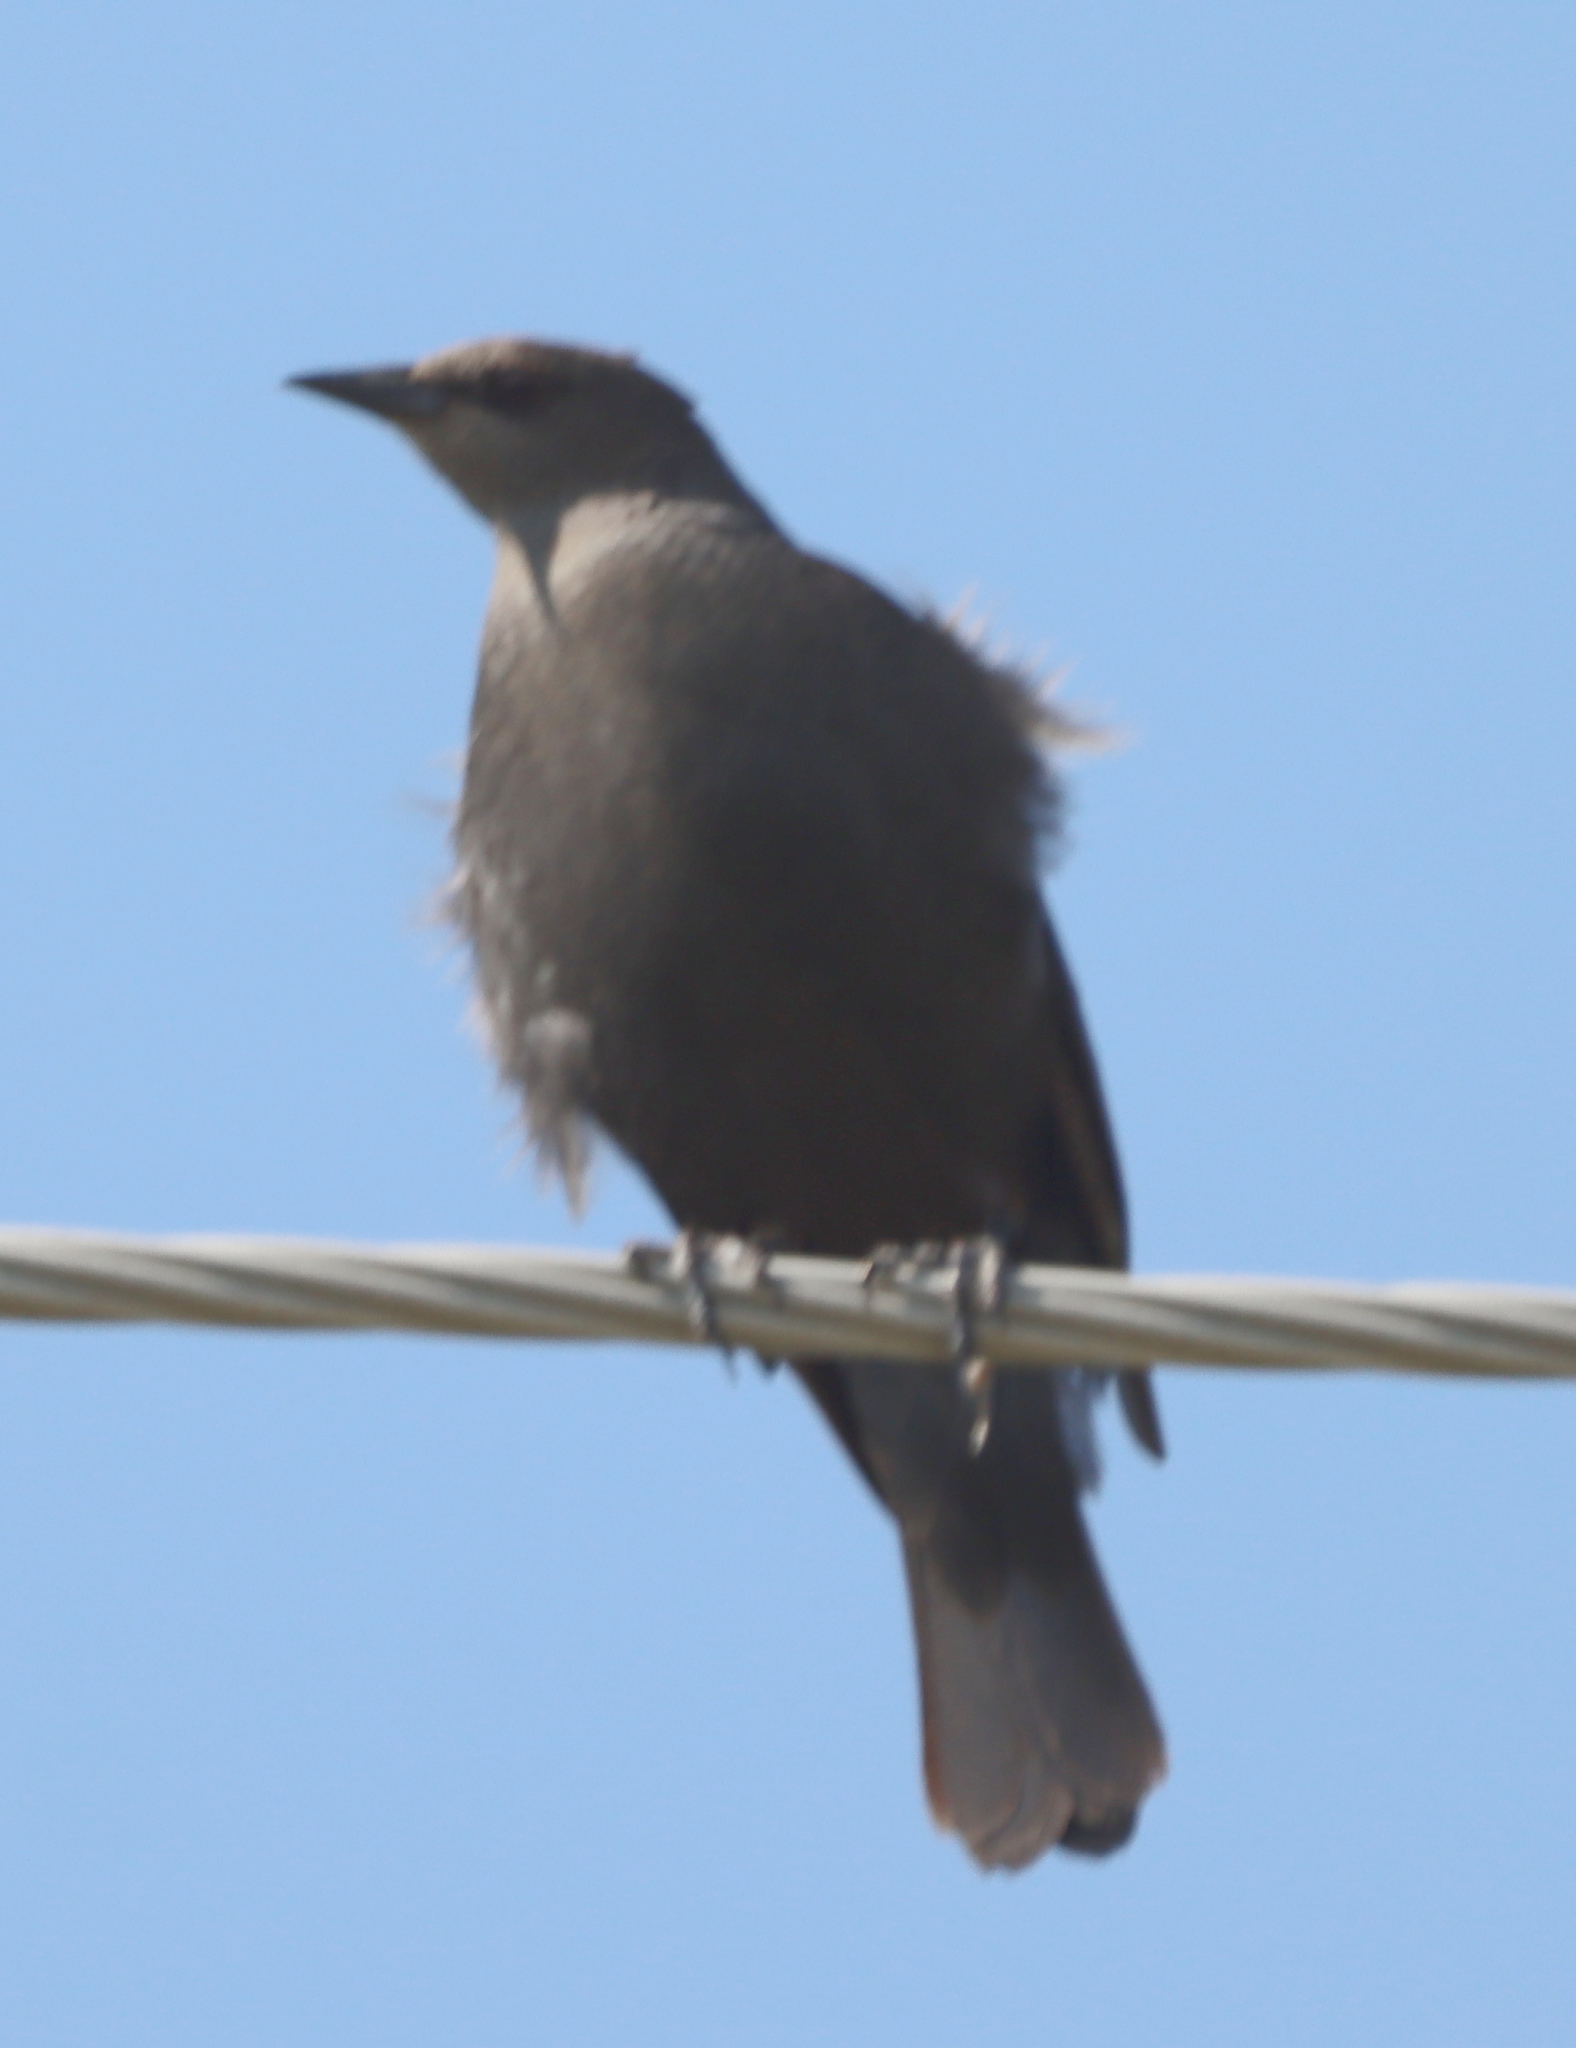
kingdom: Animalia
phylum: Chordata
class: Aves
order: Passeriformes
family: Icteridae
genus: Euphagus
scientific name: Euphagus cyanocephalus
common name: Brewer's blackbird
